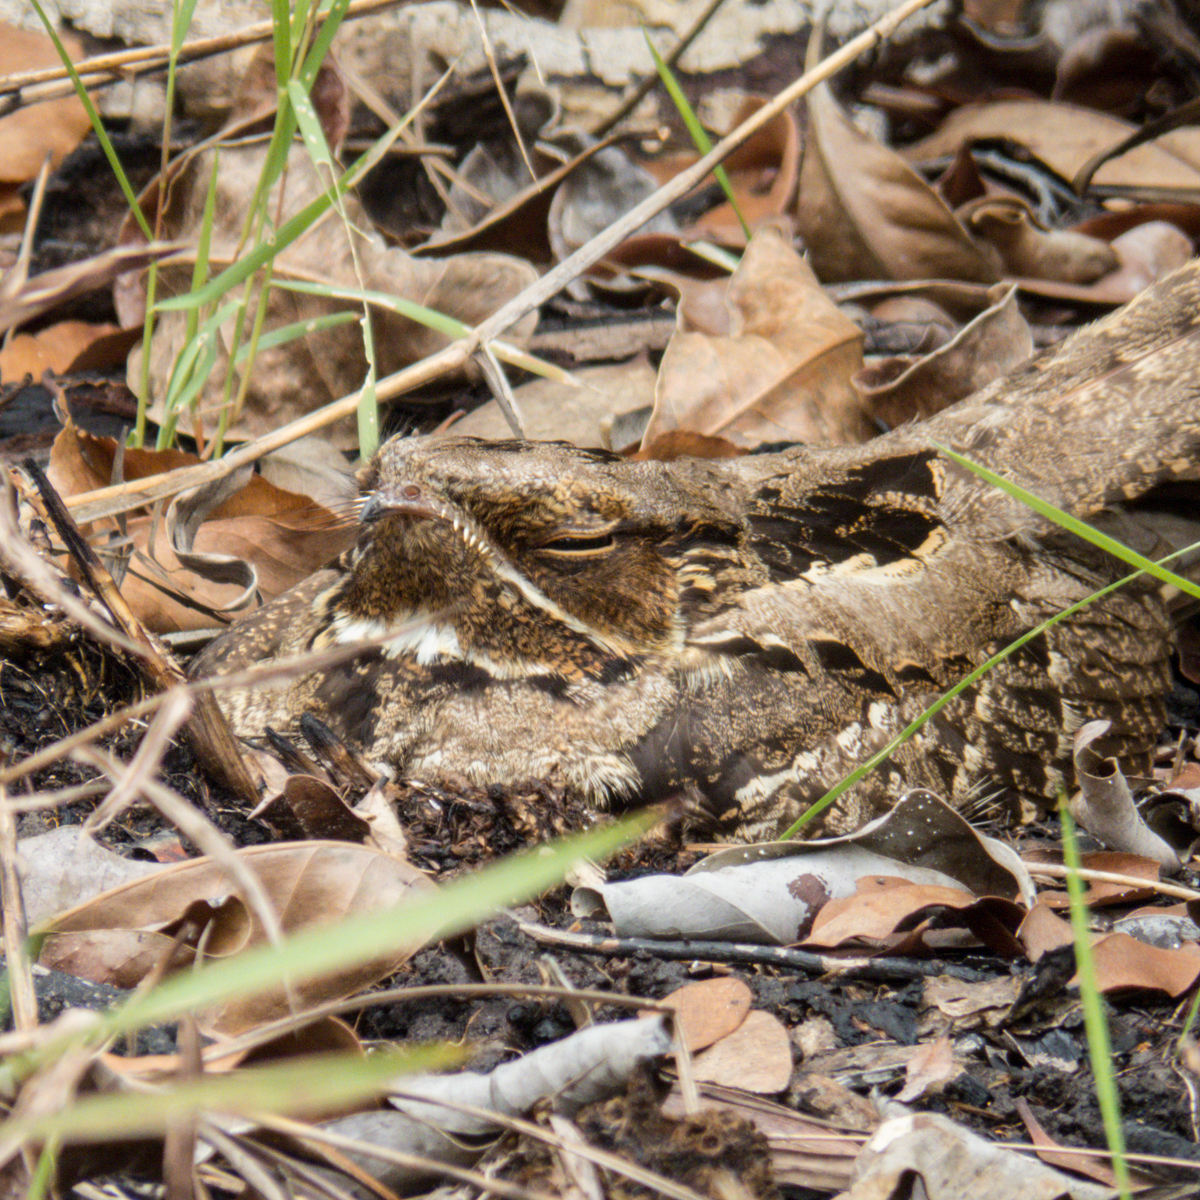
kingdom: Animalia
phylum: Chordata
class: Aves
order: Caprimulgiformes
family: Caprimulgidae
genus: Caprimulgus
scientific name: Caprimulgus macrurus
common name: Large-tailed nightjar
